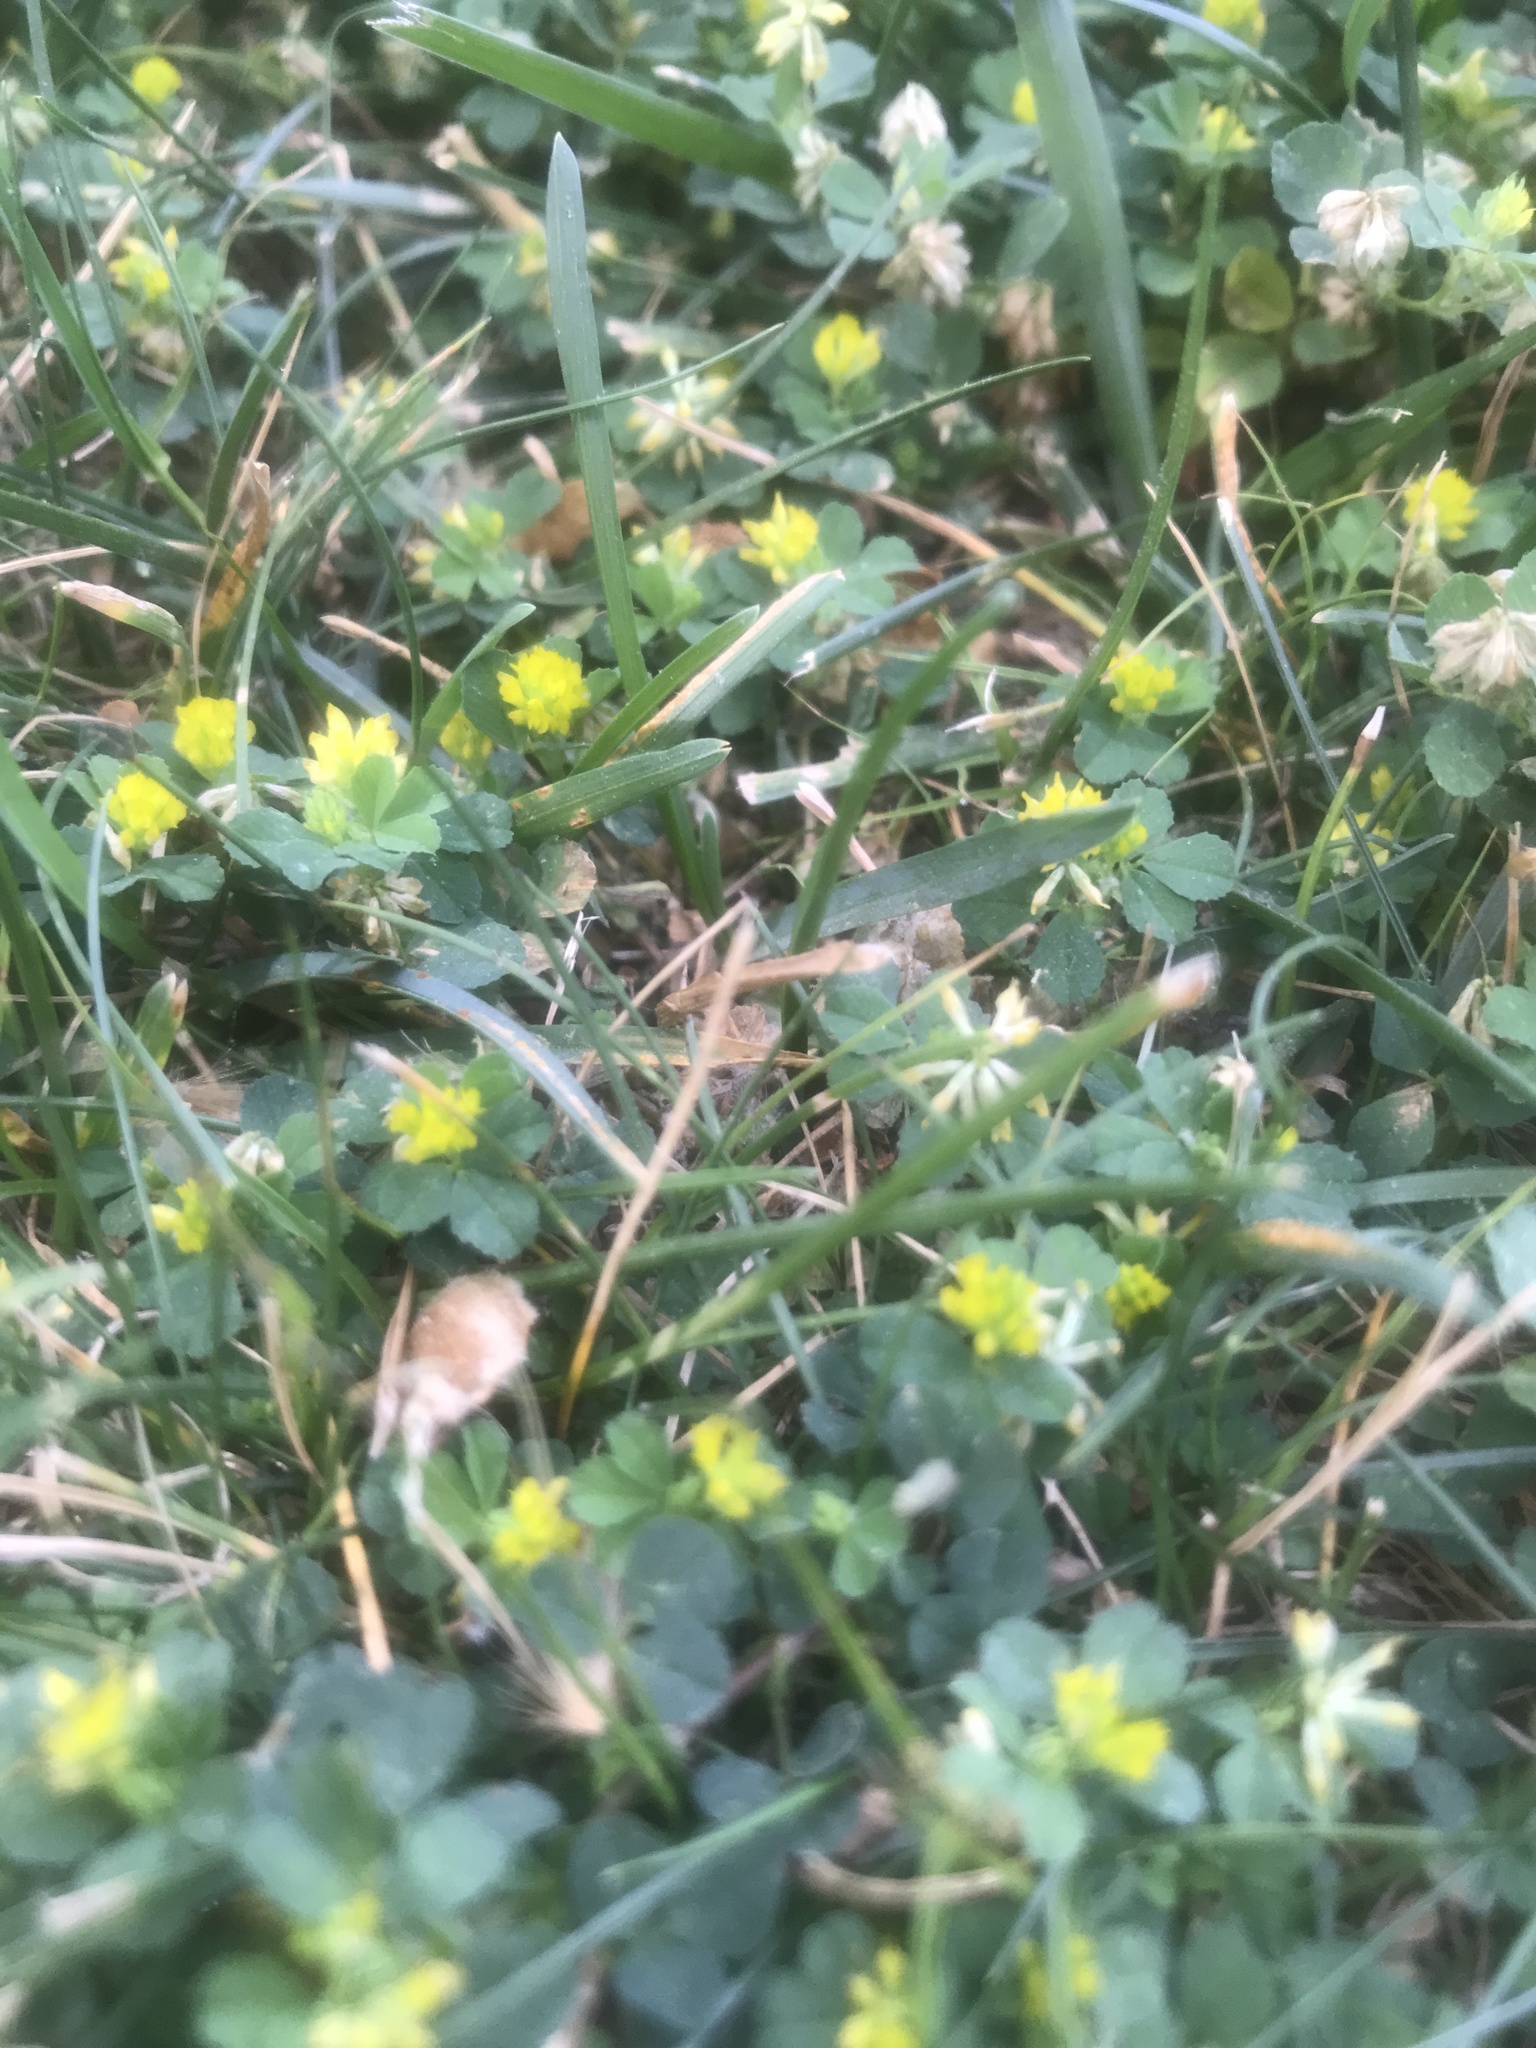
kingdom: Plantae
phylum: Tracheophyta
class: Magnoliopsida
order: Fabales
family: Fabaceae
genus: Trifolium
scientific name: Trifolium dubium
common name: Suckling clover
